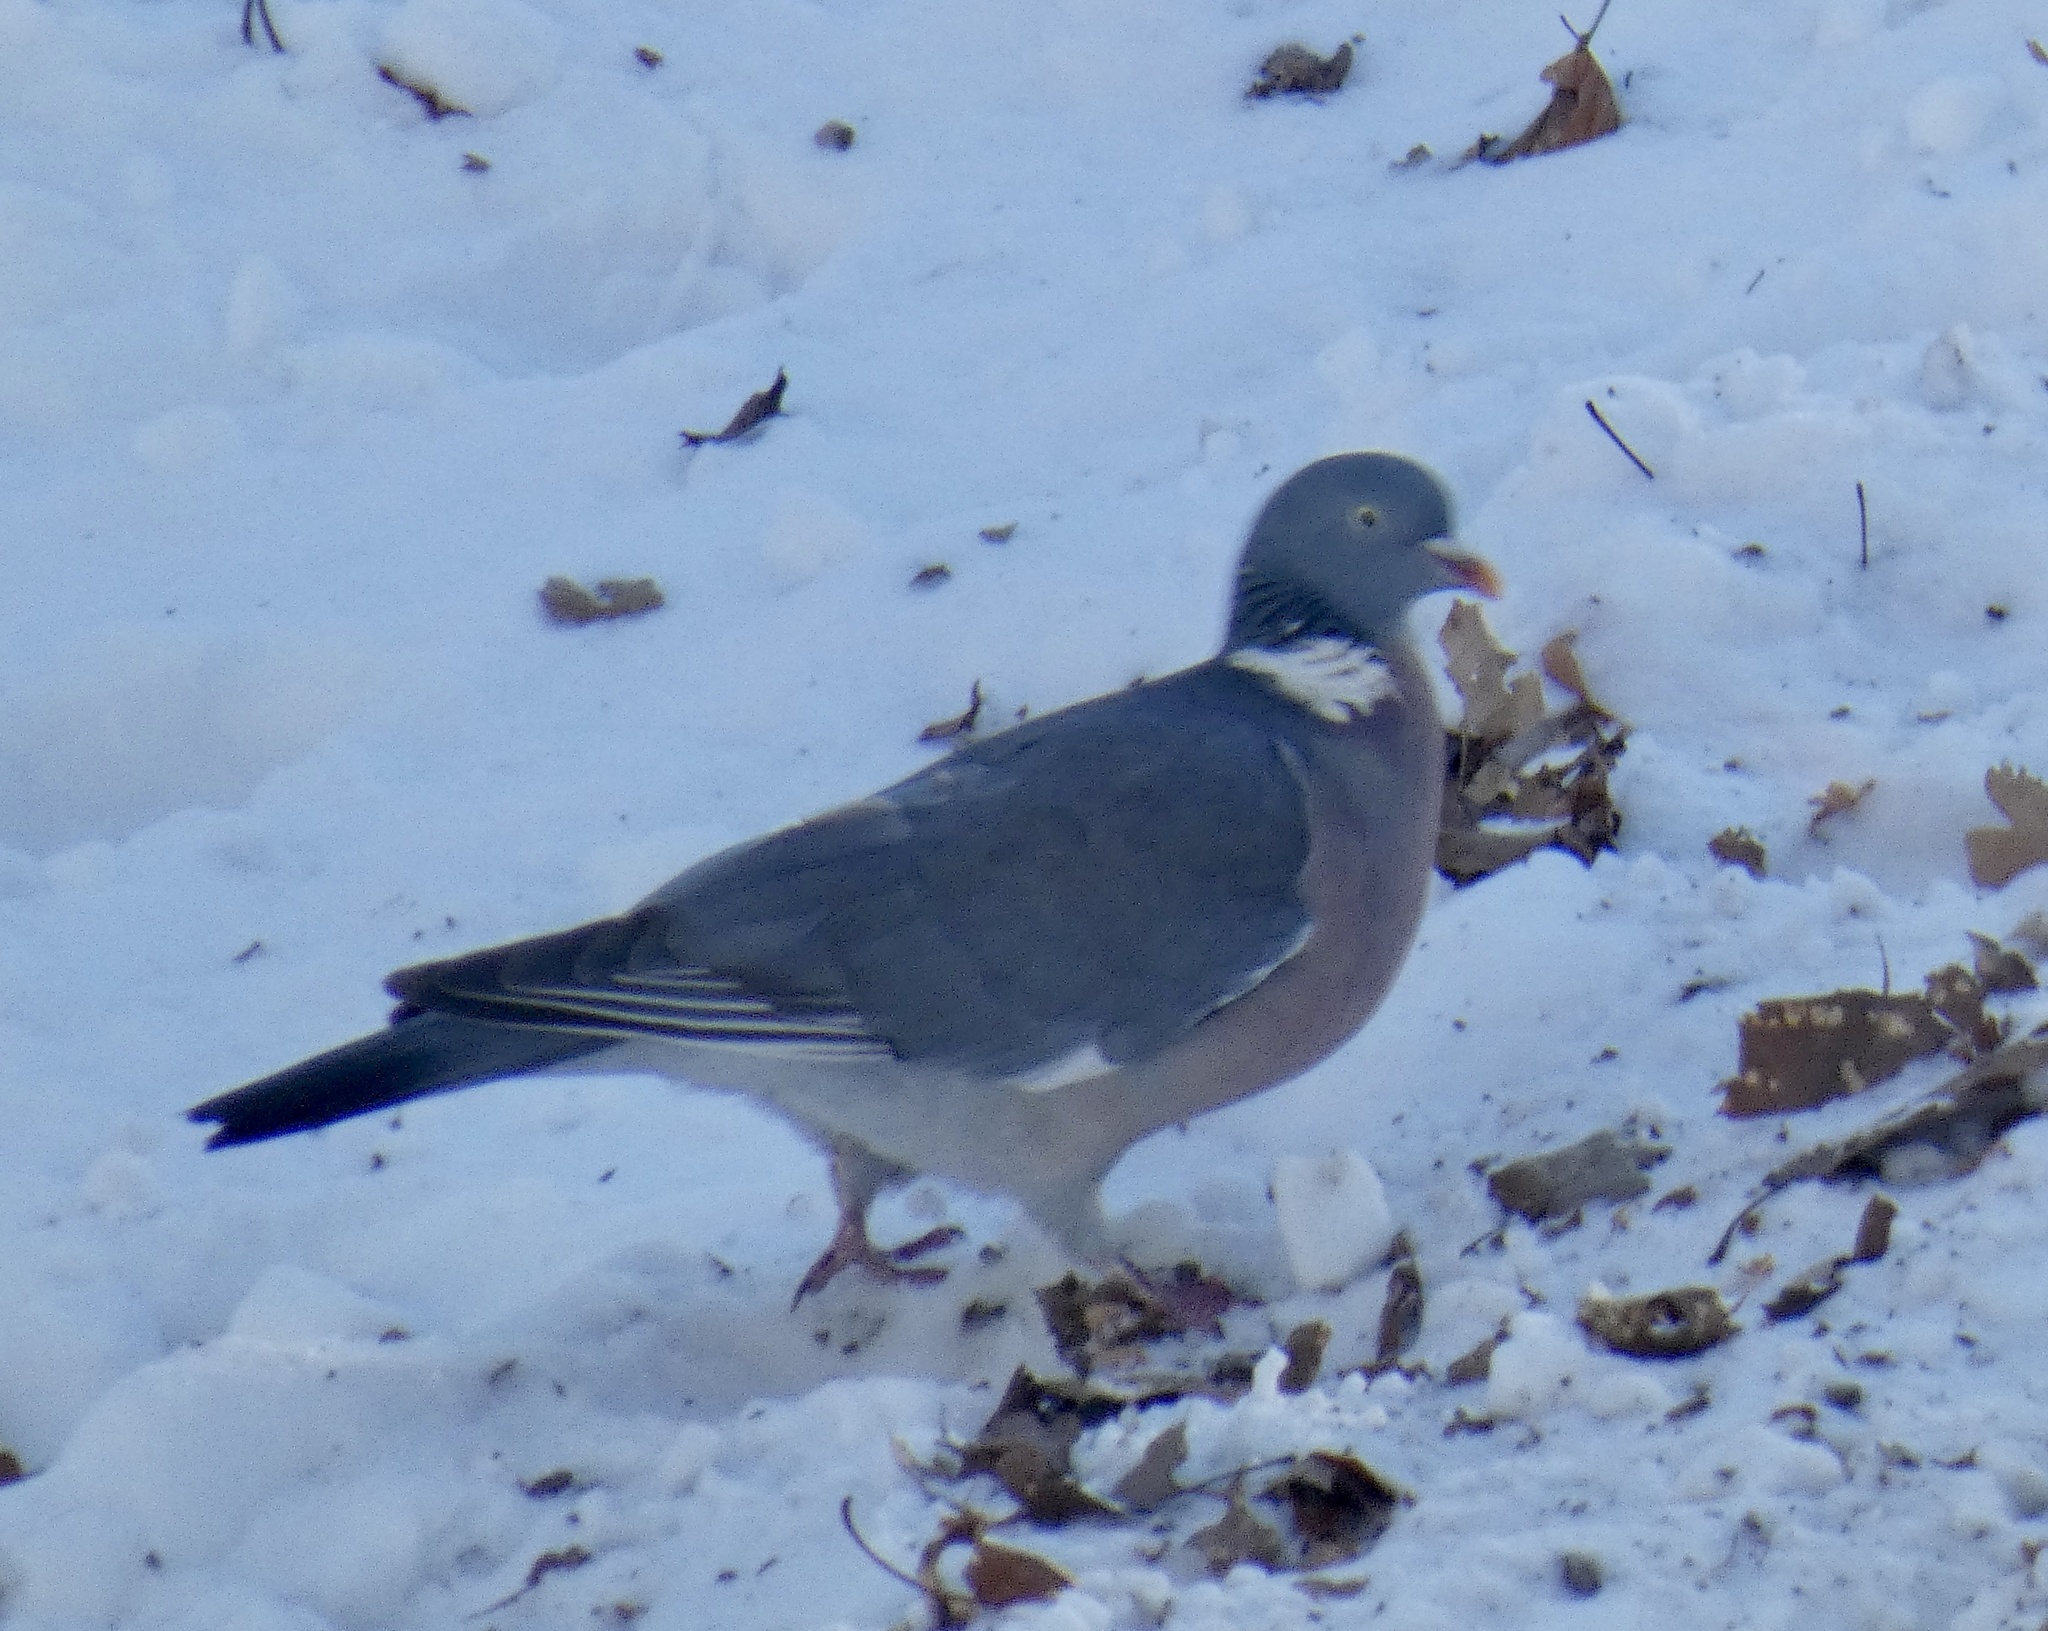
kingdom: Animalia
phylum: Chordata
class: Aves
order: Columbiformes
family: Columbidae
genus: Columba
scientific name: Columba palumbus
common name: Common wood pigeon
